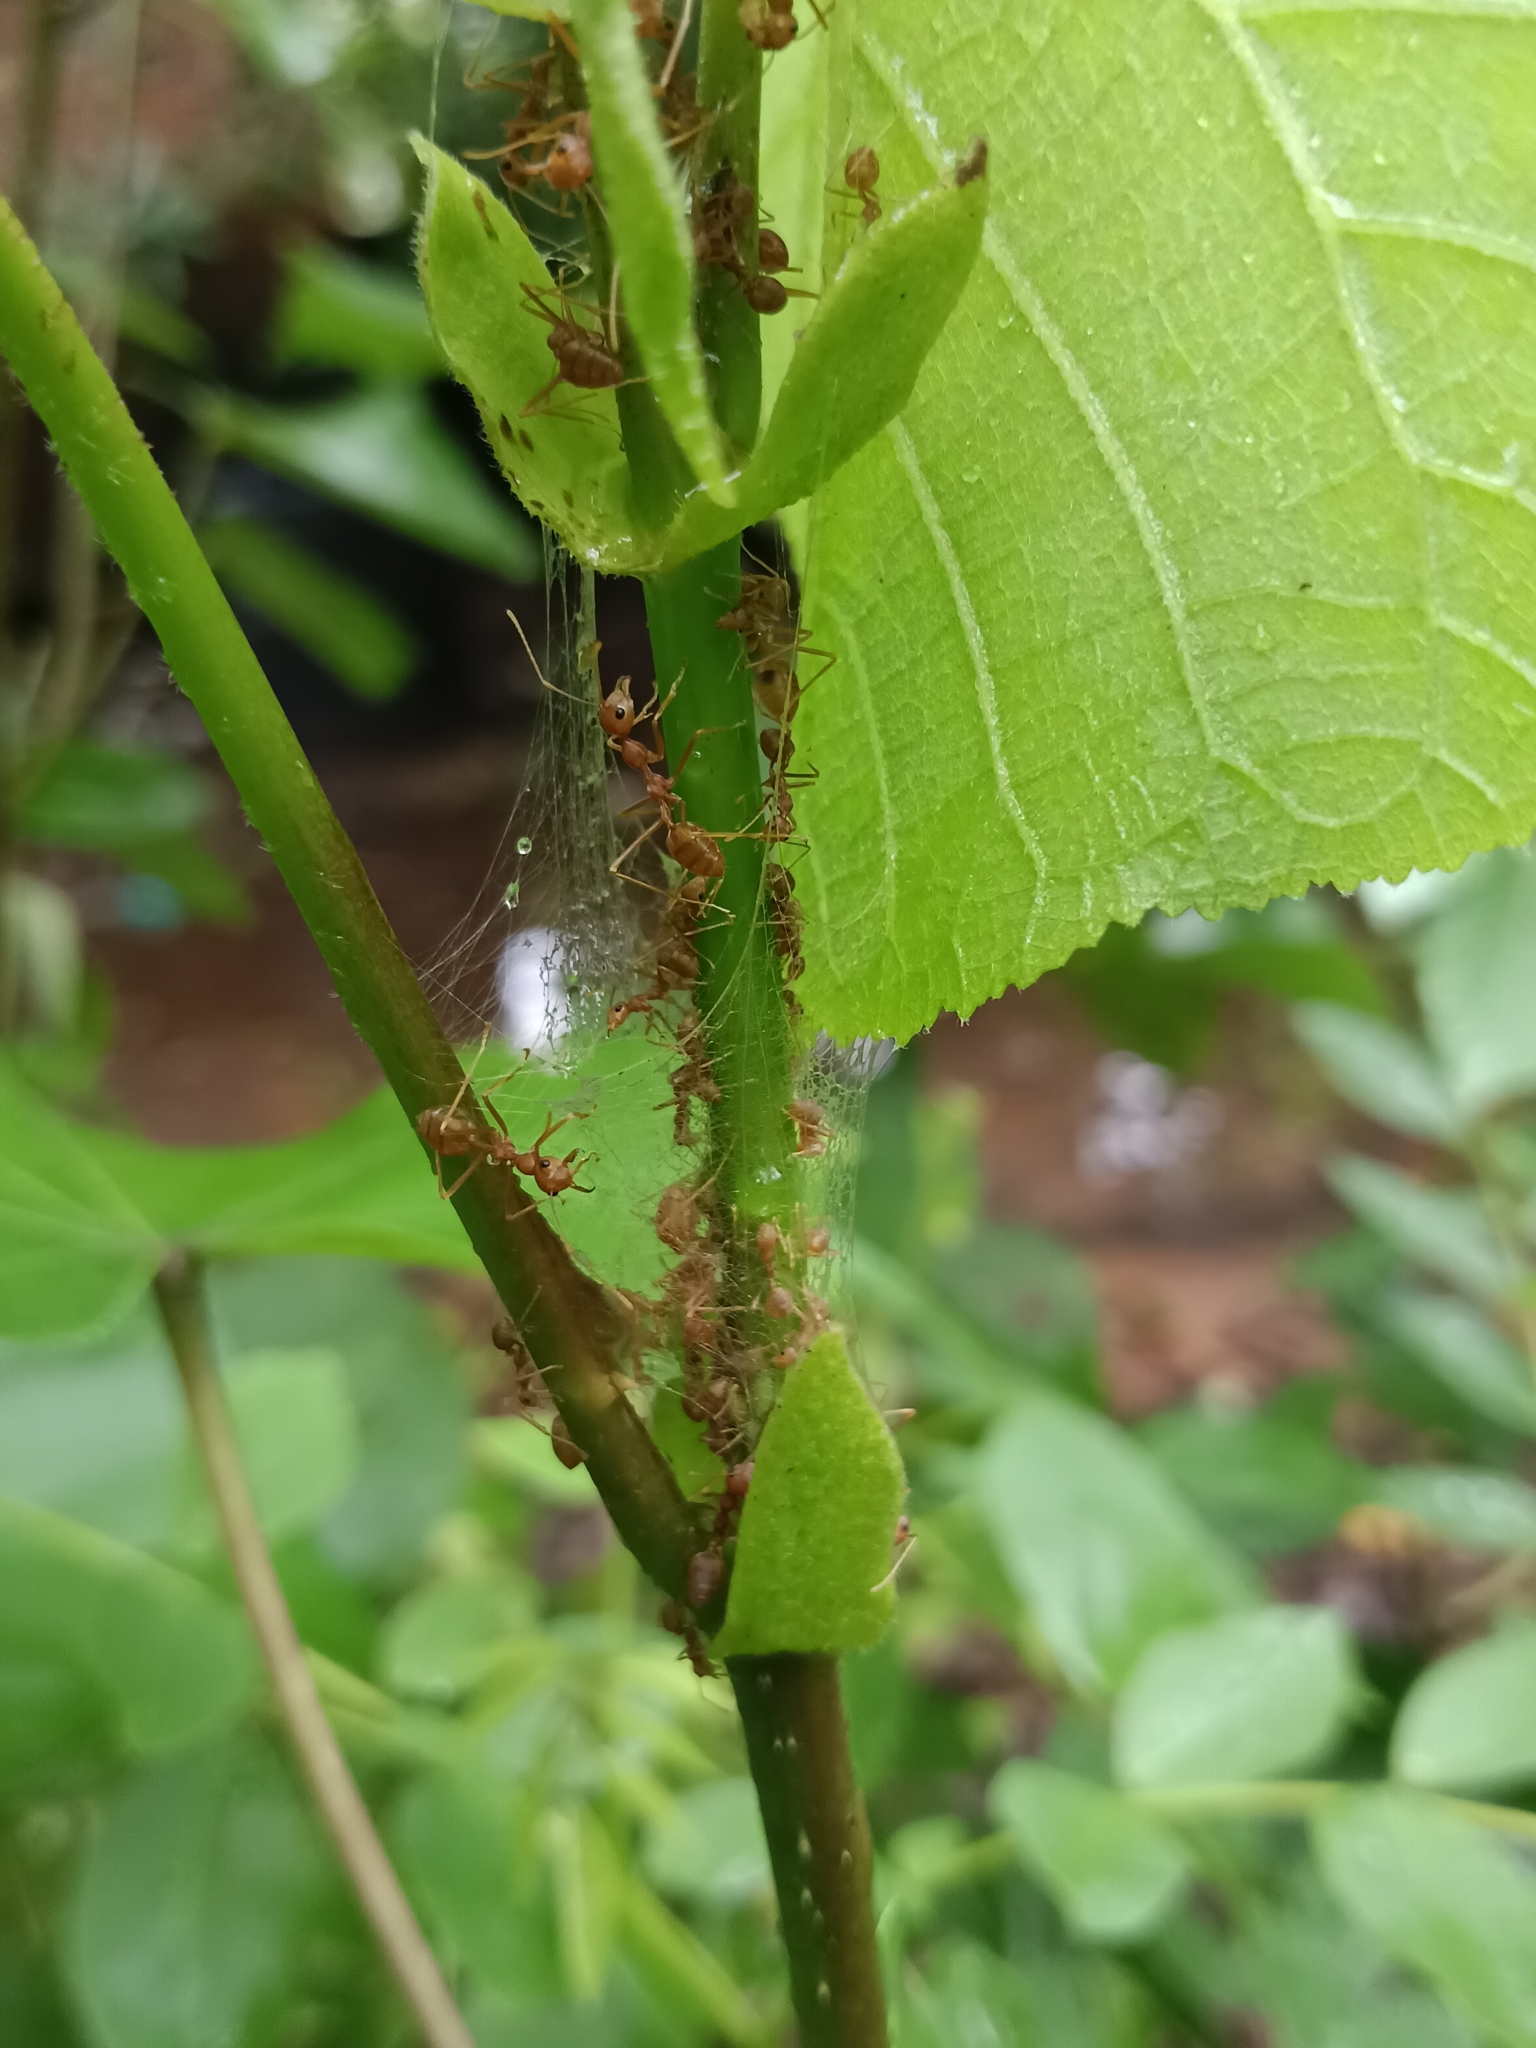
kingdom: Animalia
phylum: Arthropoda
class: Insecta
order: Hymenoptera
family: Formicidae
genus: Oecophylla
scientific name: Oecophylla smaragdina
